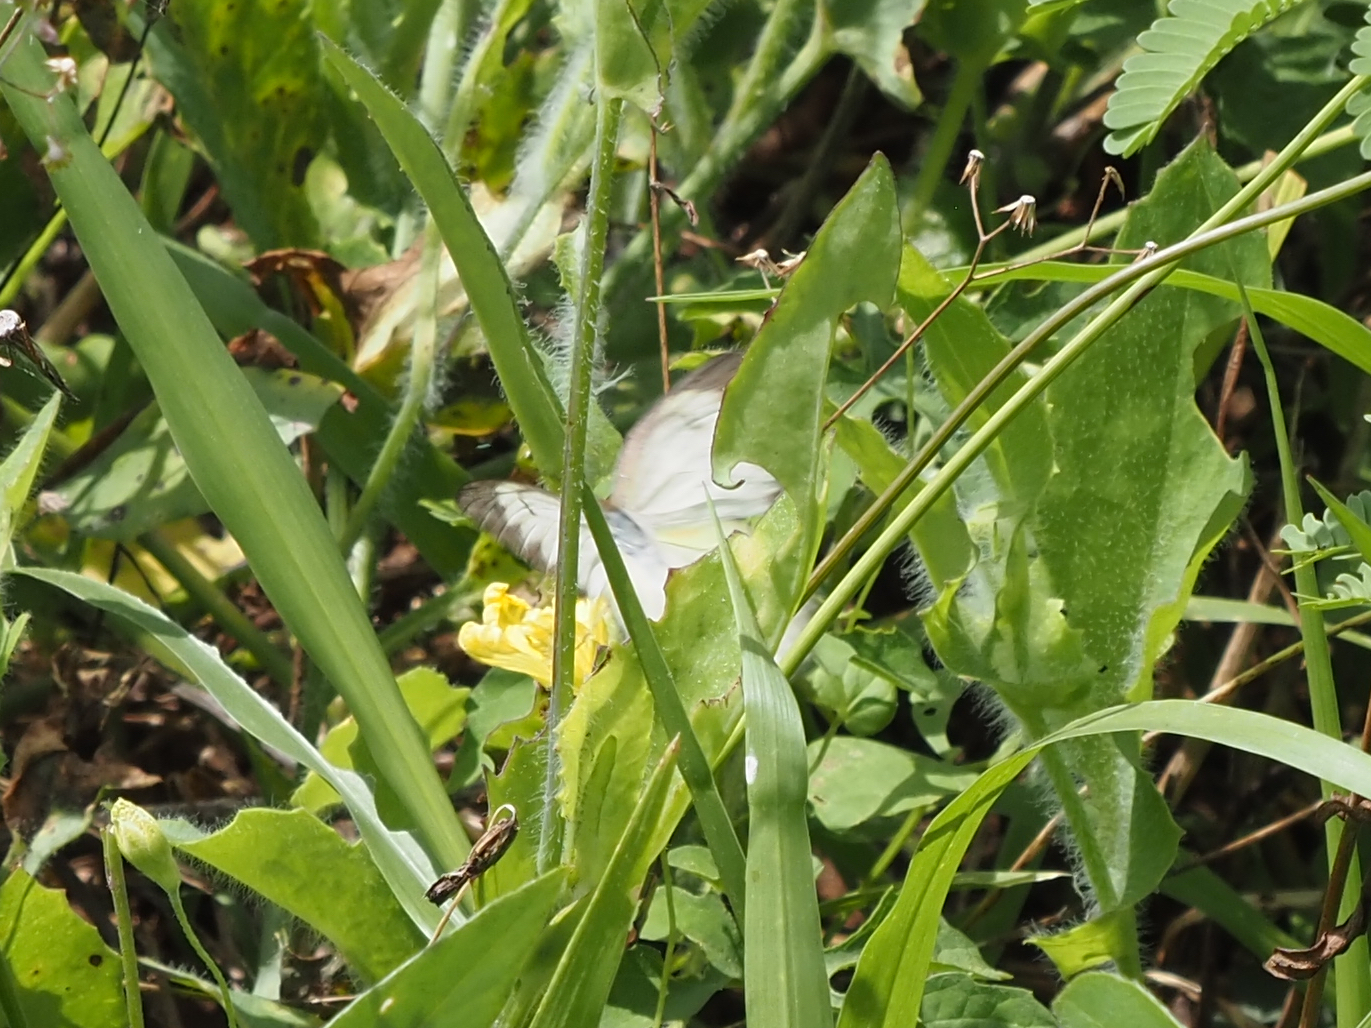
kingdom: Animalia
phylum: Arthropoda
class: Insecta
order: Lepidoptera
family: Pieridae
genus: Ascia
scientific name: Ascia monuste
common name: Great southern white
